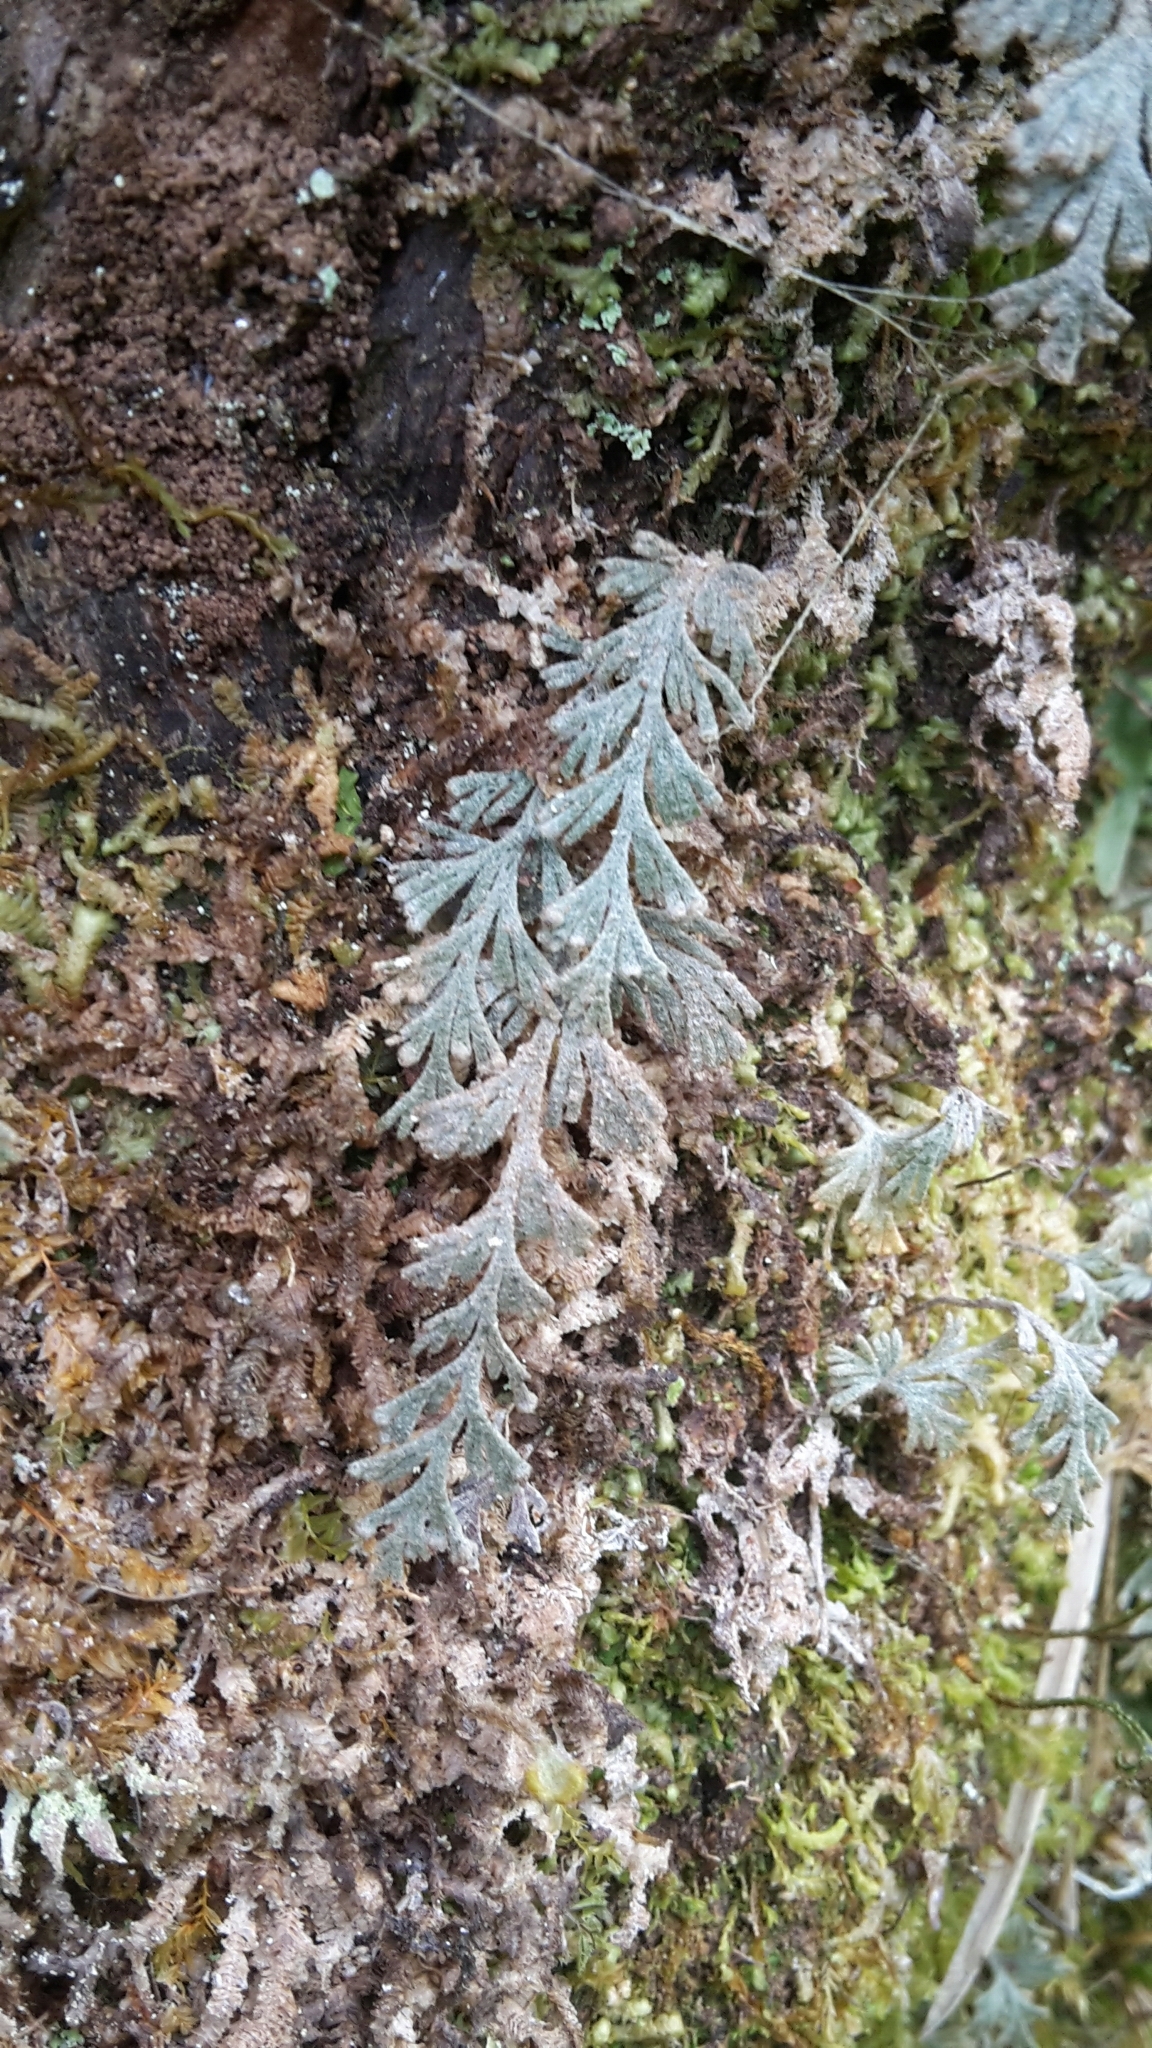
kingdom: Plantae
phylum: Tracheophyta
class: Polypodiopsida
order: Hymenophyllales
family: Hymenophyllaceae
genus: Hymenophyllum
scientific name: Hymenophyllum malingii
